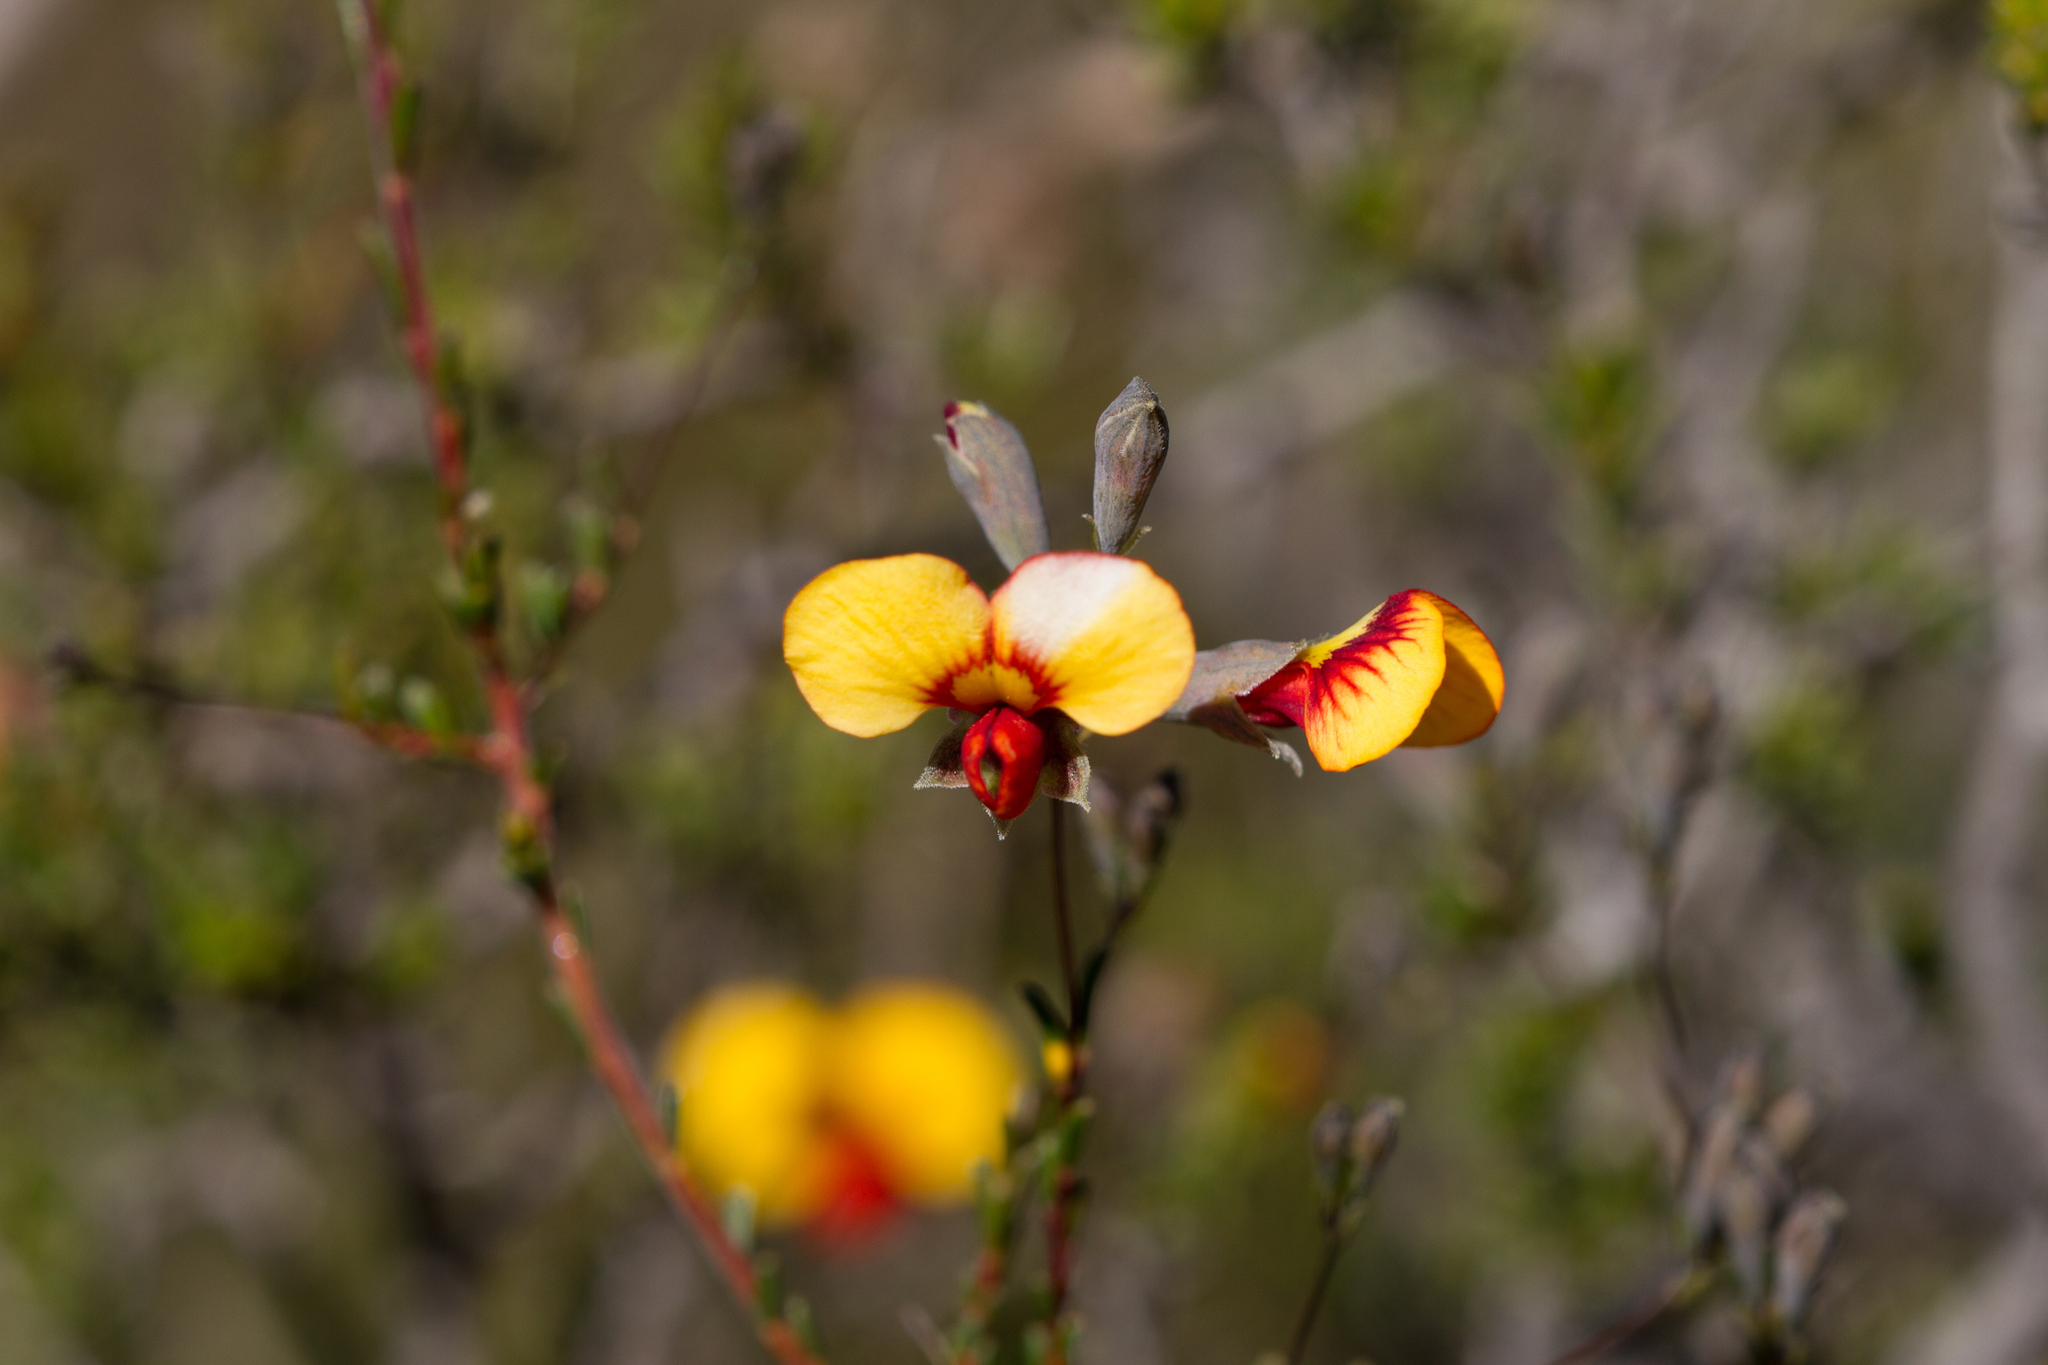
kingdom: Plantae
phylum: Tracheophyta
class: Magnoliopsida
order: Fabales
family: Fabaceae
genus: Dillwynia
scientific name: Dillwynia hispida
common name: Red parrot-pea
